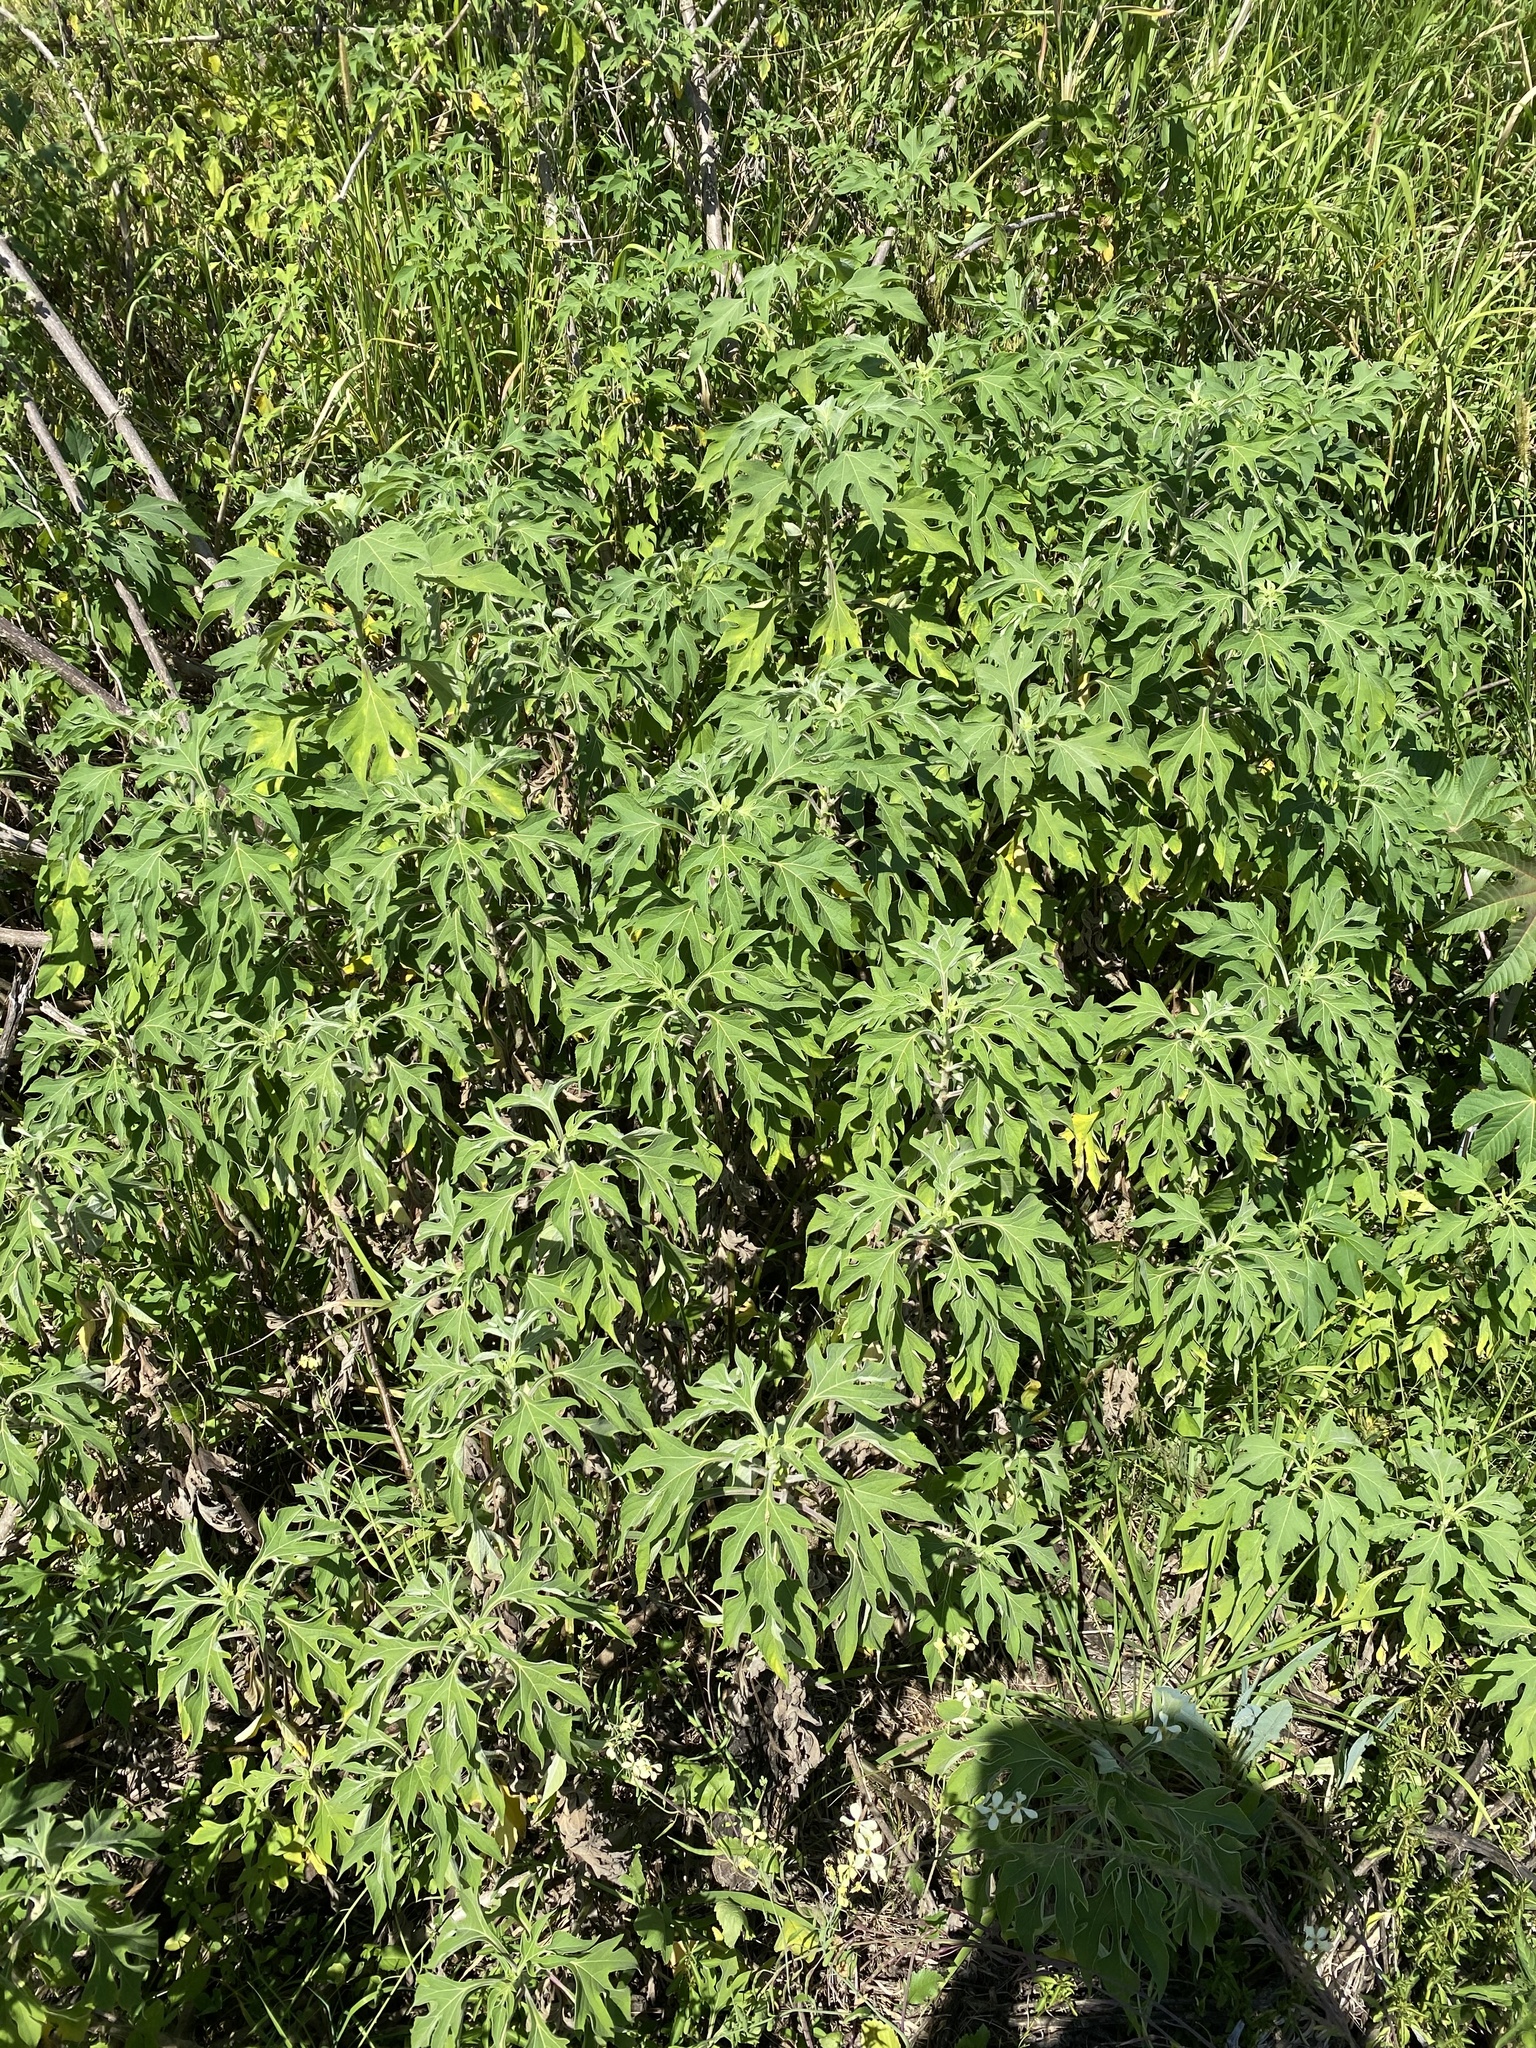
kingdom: Plantae
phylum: Tracheophyta
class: Magnoliopsida
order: Asterales
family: Asteraceae
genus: Tithonia
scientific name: Tithonia diversifolia
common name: Tree marigold
